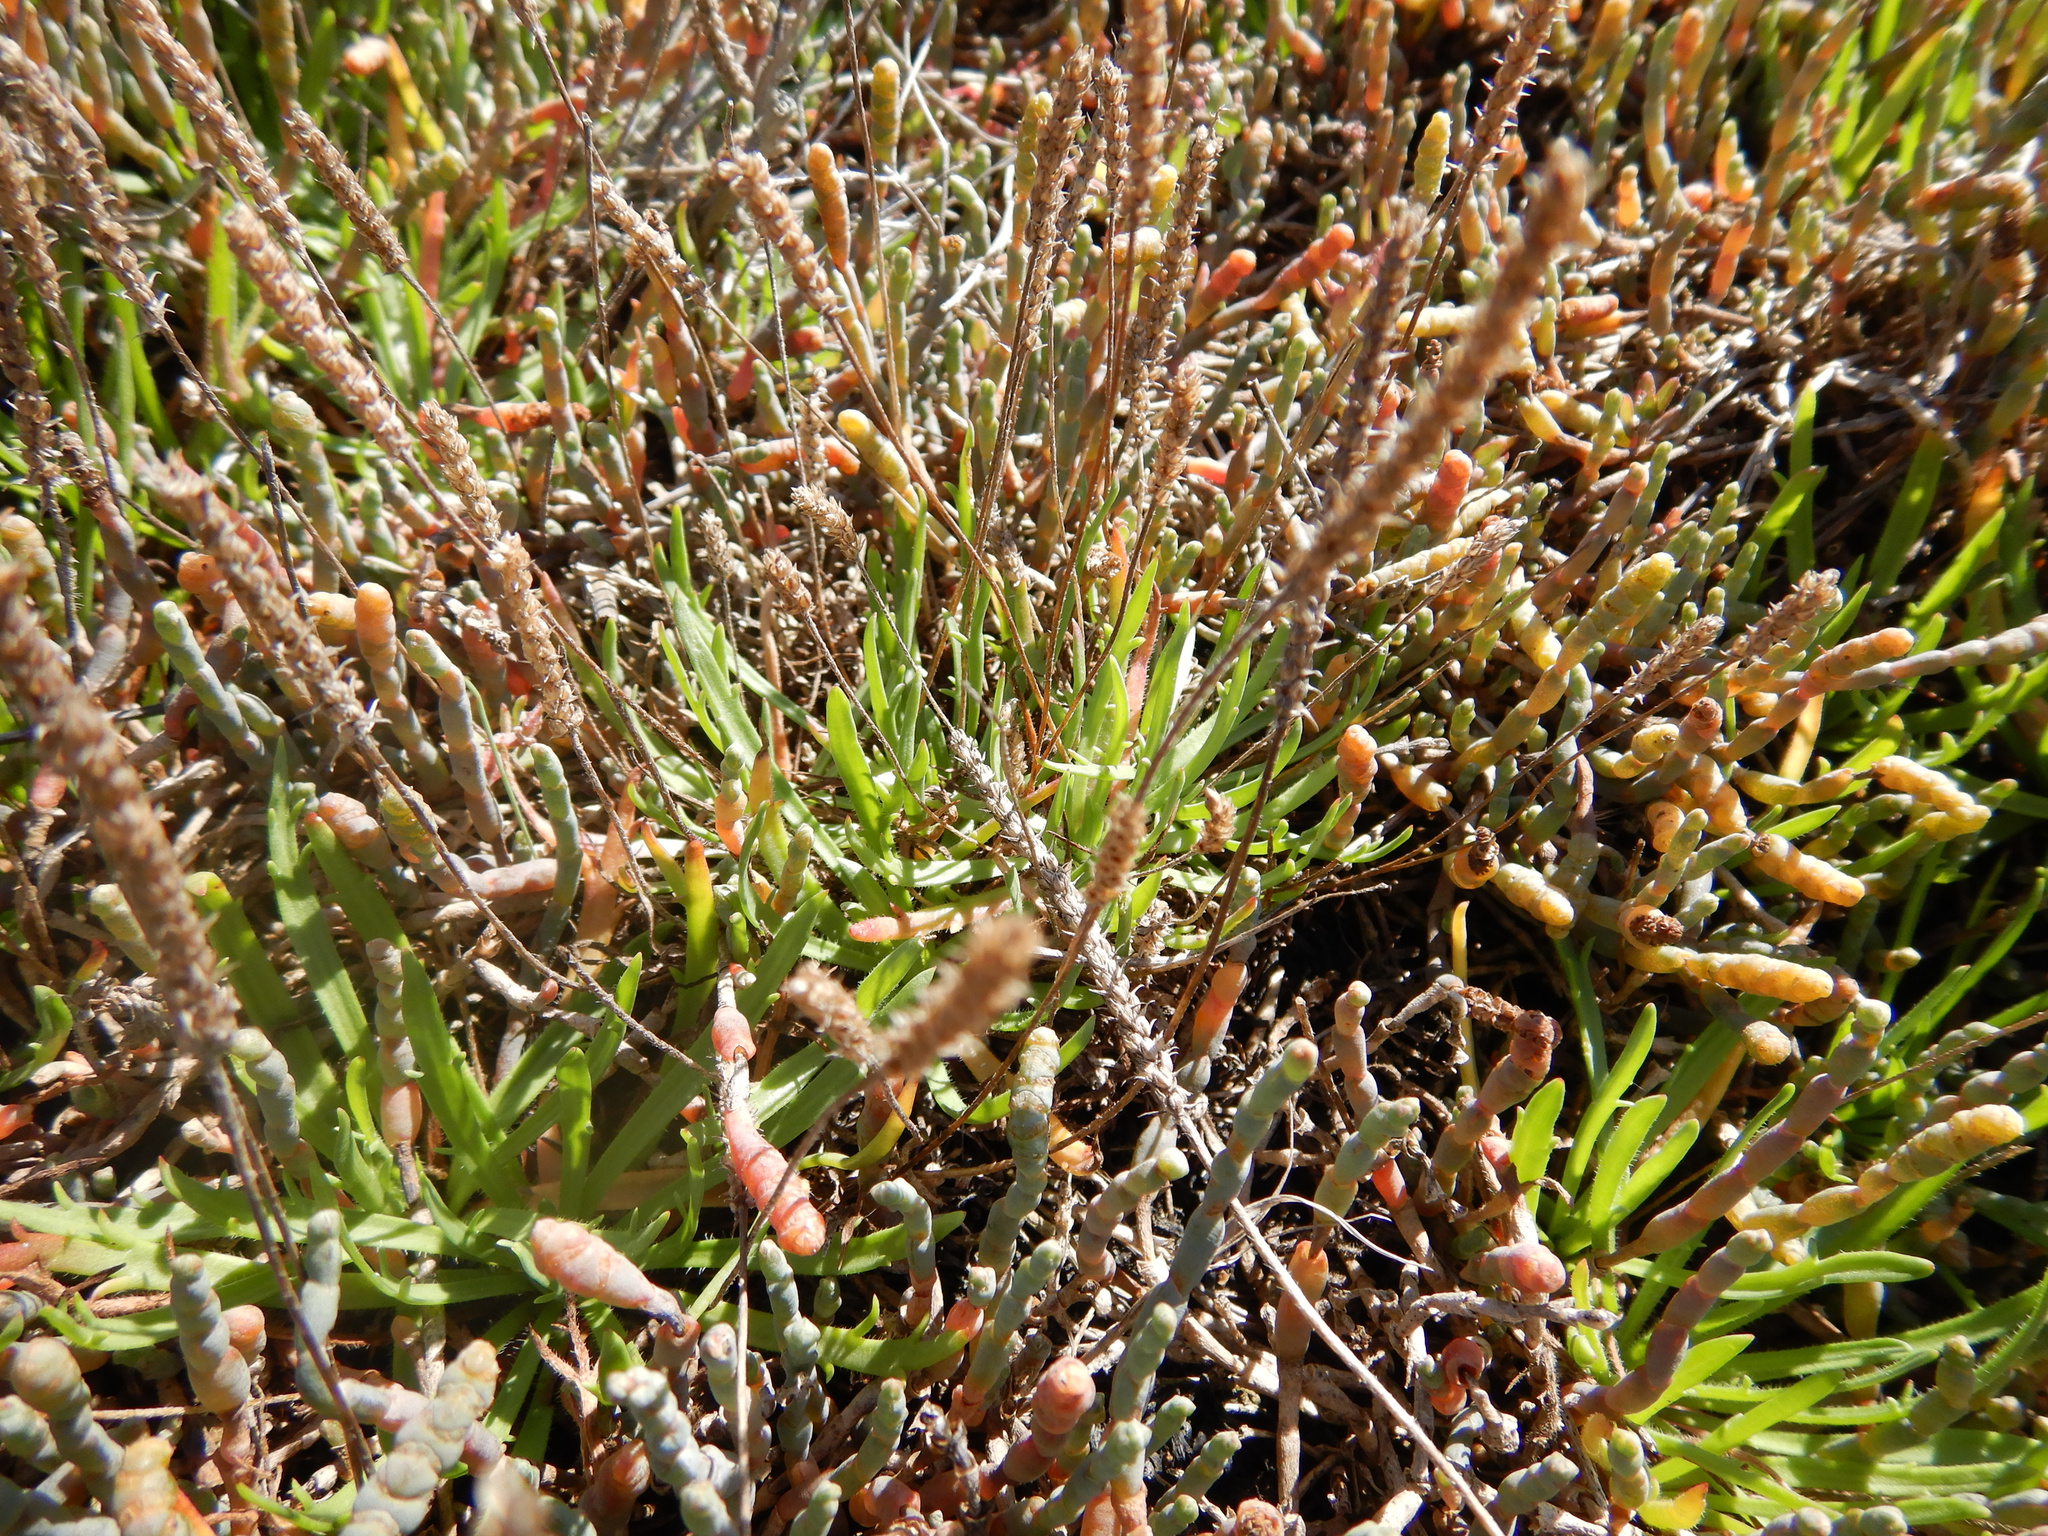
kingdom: Plantae
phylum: Tracheophyta
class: Magnoliopsida
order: Lamiales
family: Plantaginaceae
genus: Plantago
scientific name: Plantago coronopus
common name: Buck's-horn plantain
